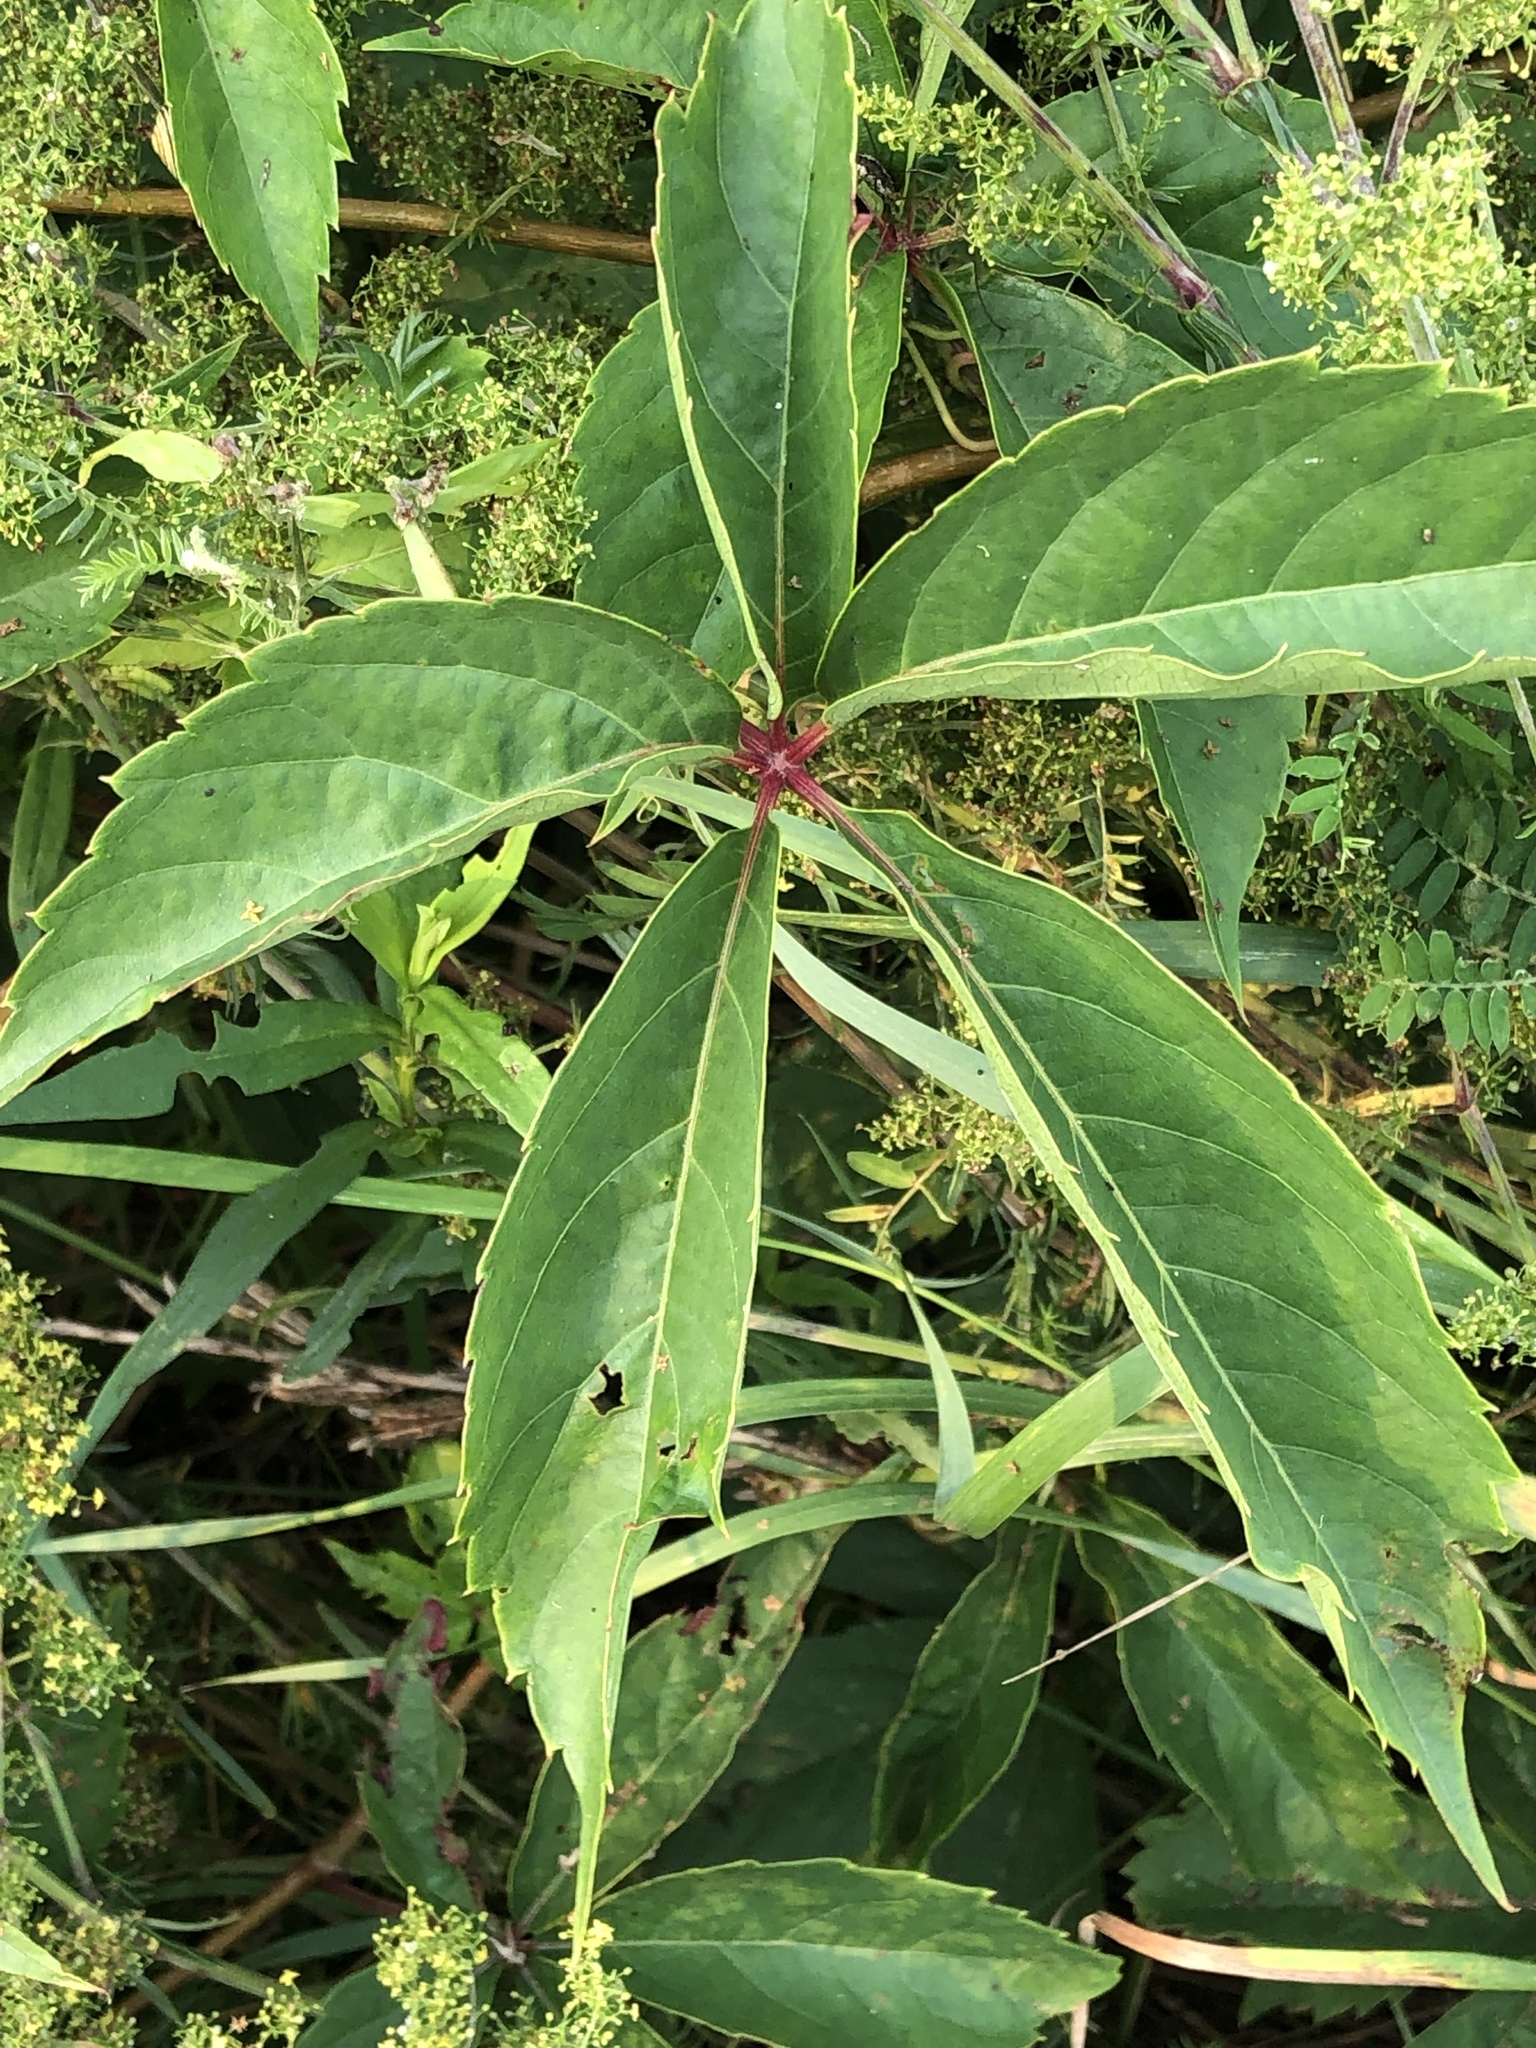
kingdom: Plantae
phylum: Tracheophyta
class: Magnoliopsida
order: Vitales
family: Vitaceae
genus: Parthenocissus
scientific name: Parthenocissus inserta
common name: False virginia-creeper
